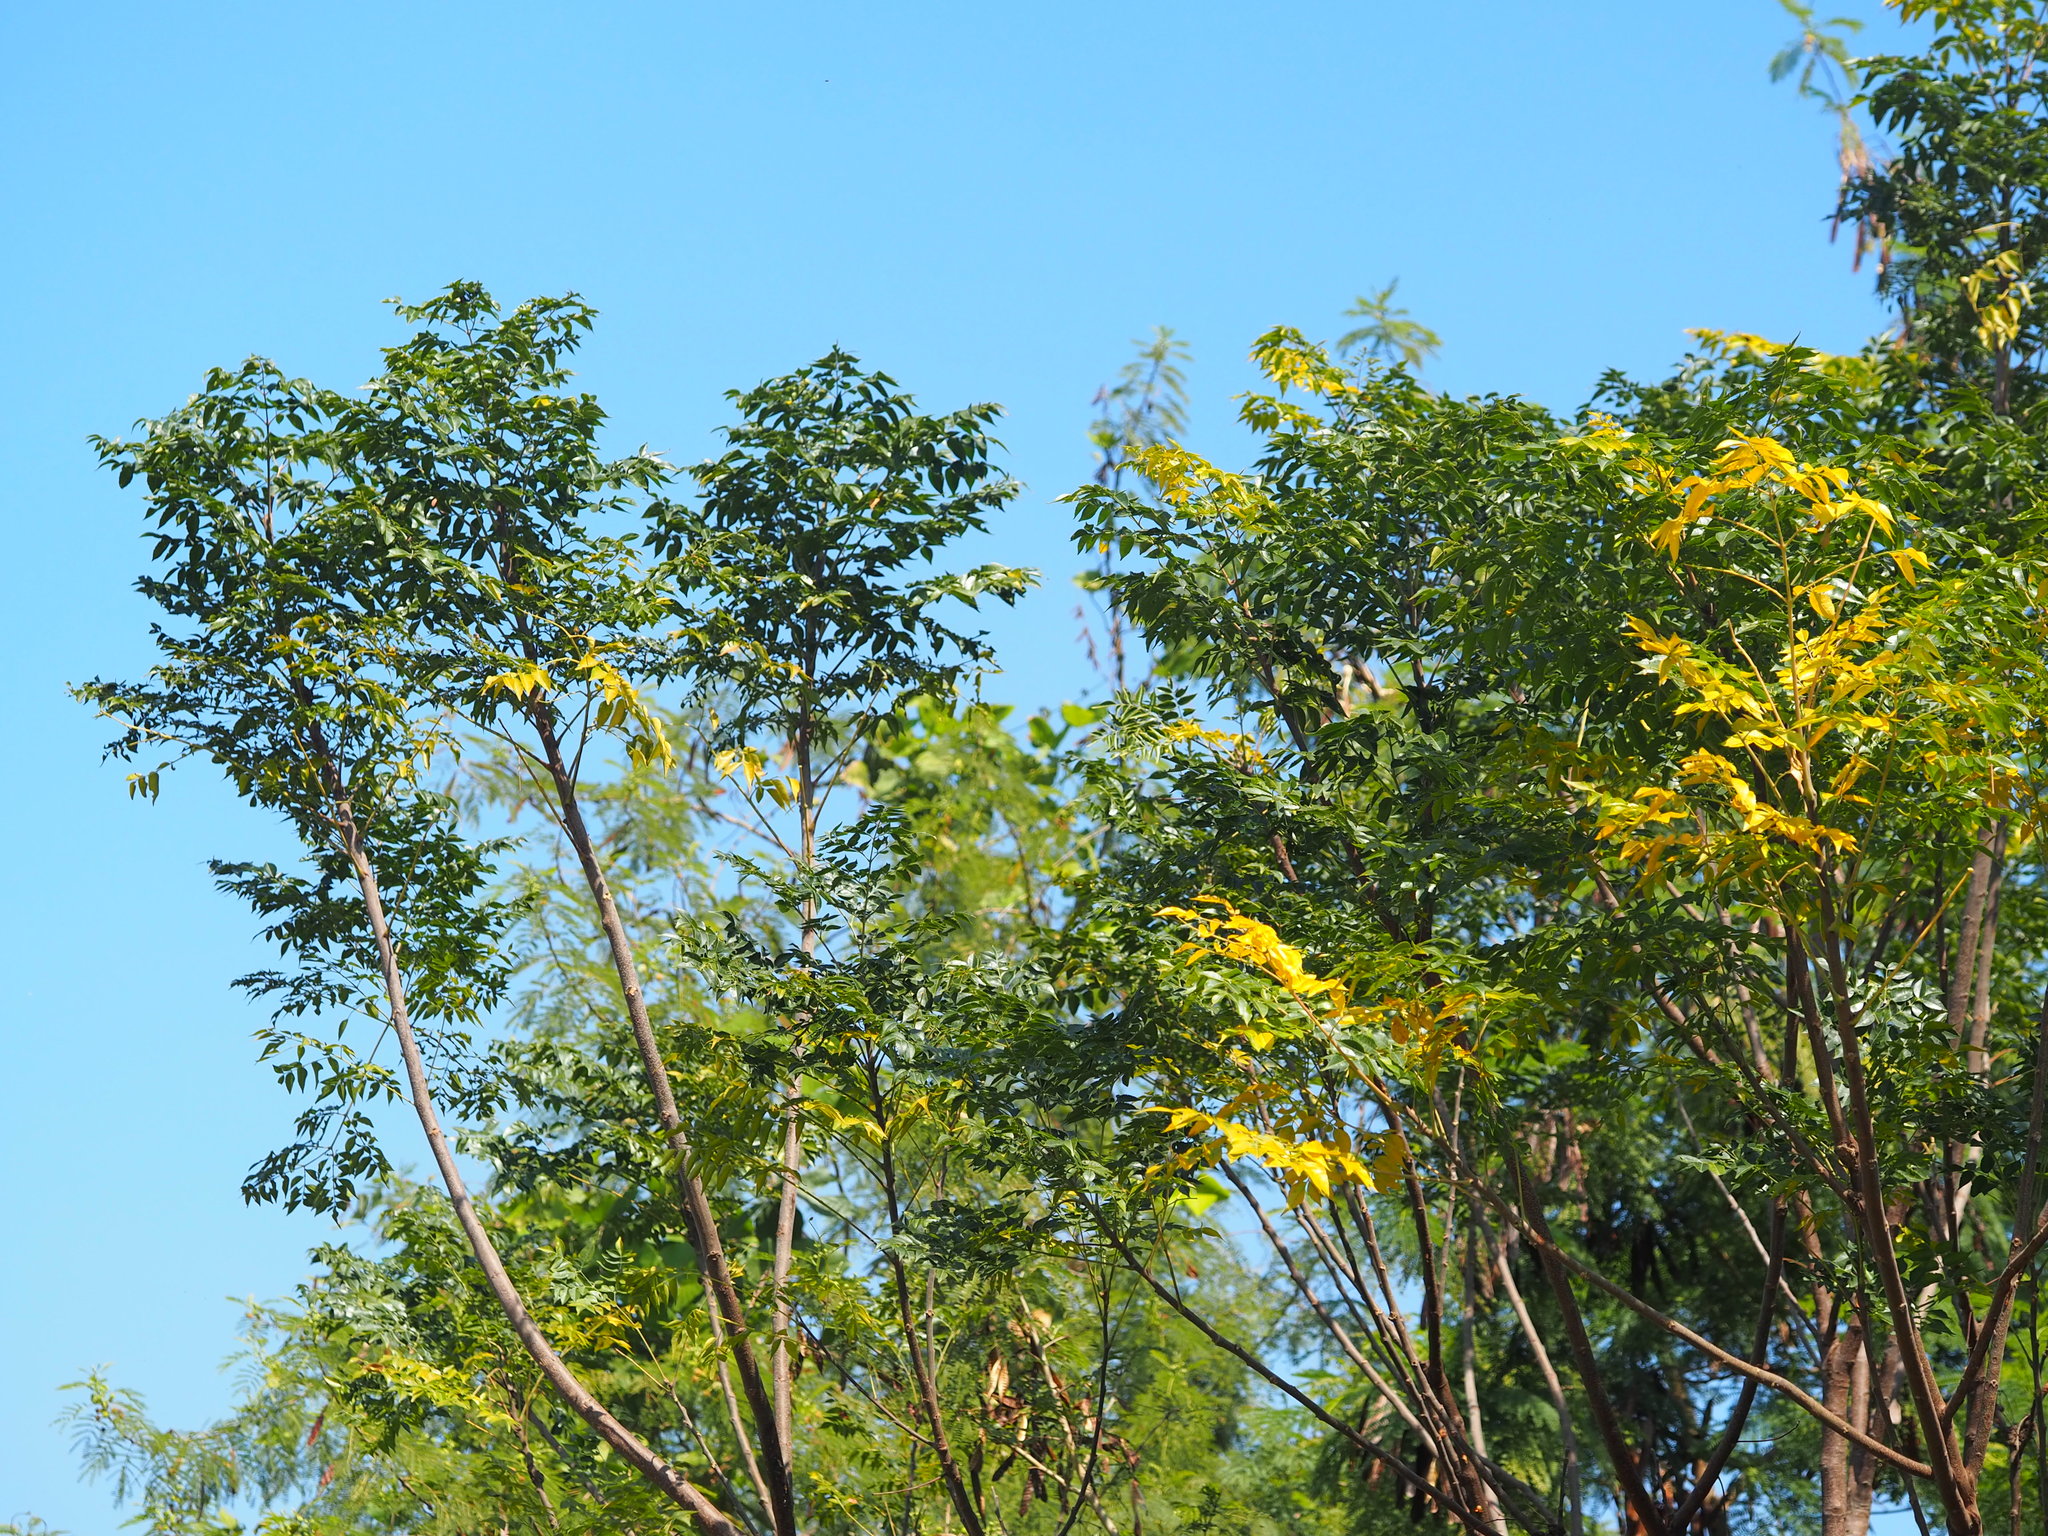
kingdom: Plantae
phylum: Tracheophyta
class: Magnoliopsida
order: Sapindales
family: Meliaceae
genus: Melia
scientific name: Melia azedarach
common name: Chinaberrytree
